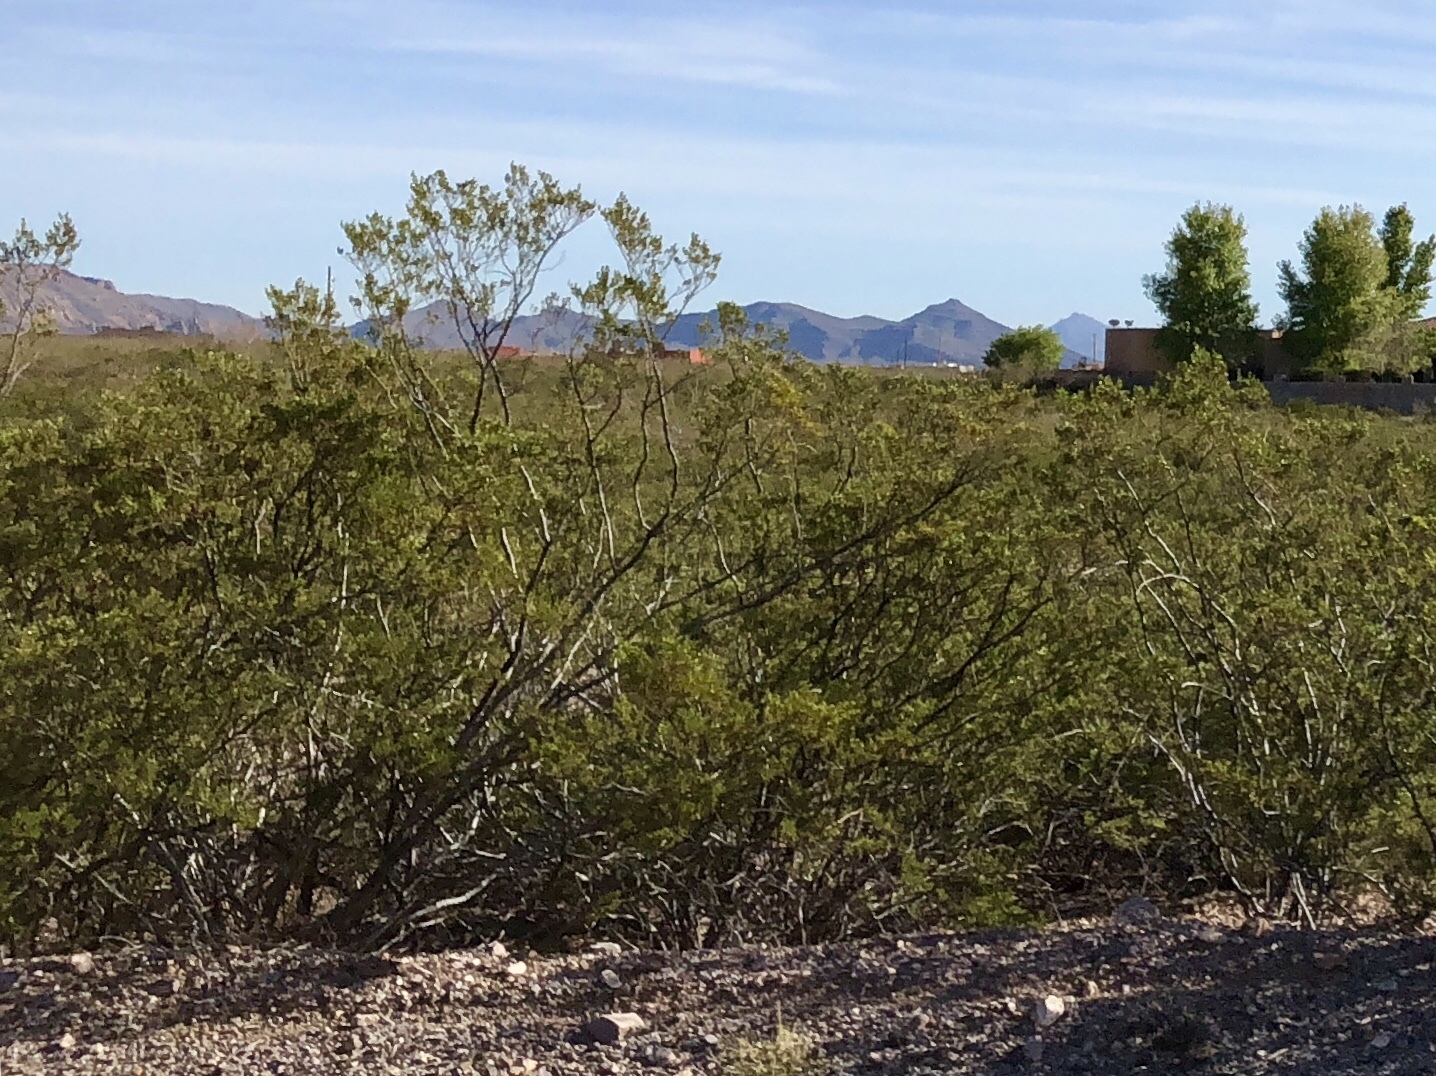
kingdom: Plantae
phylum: Tracheophyta
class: Magnoliopsida
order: Zygophyllales
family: Zygophyllaceae
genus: Larrea
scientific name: Larrea tridentata
